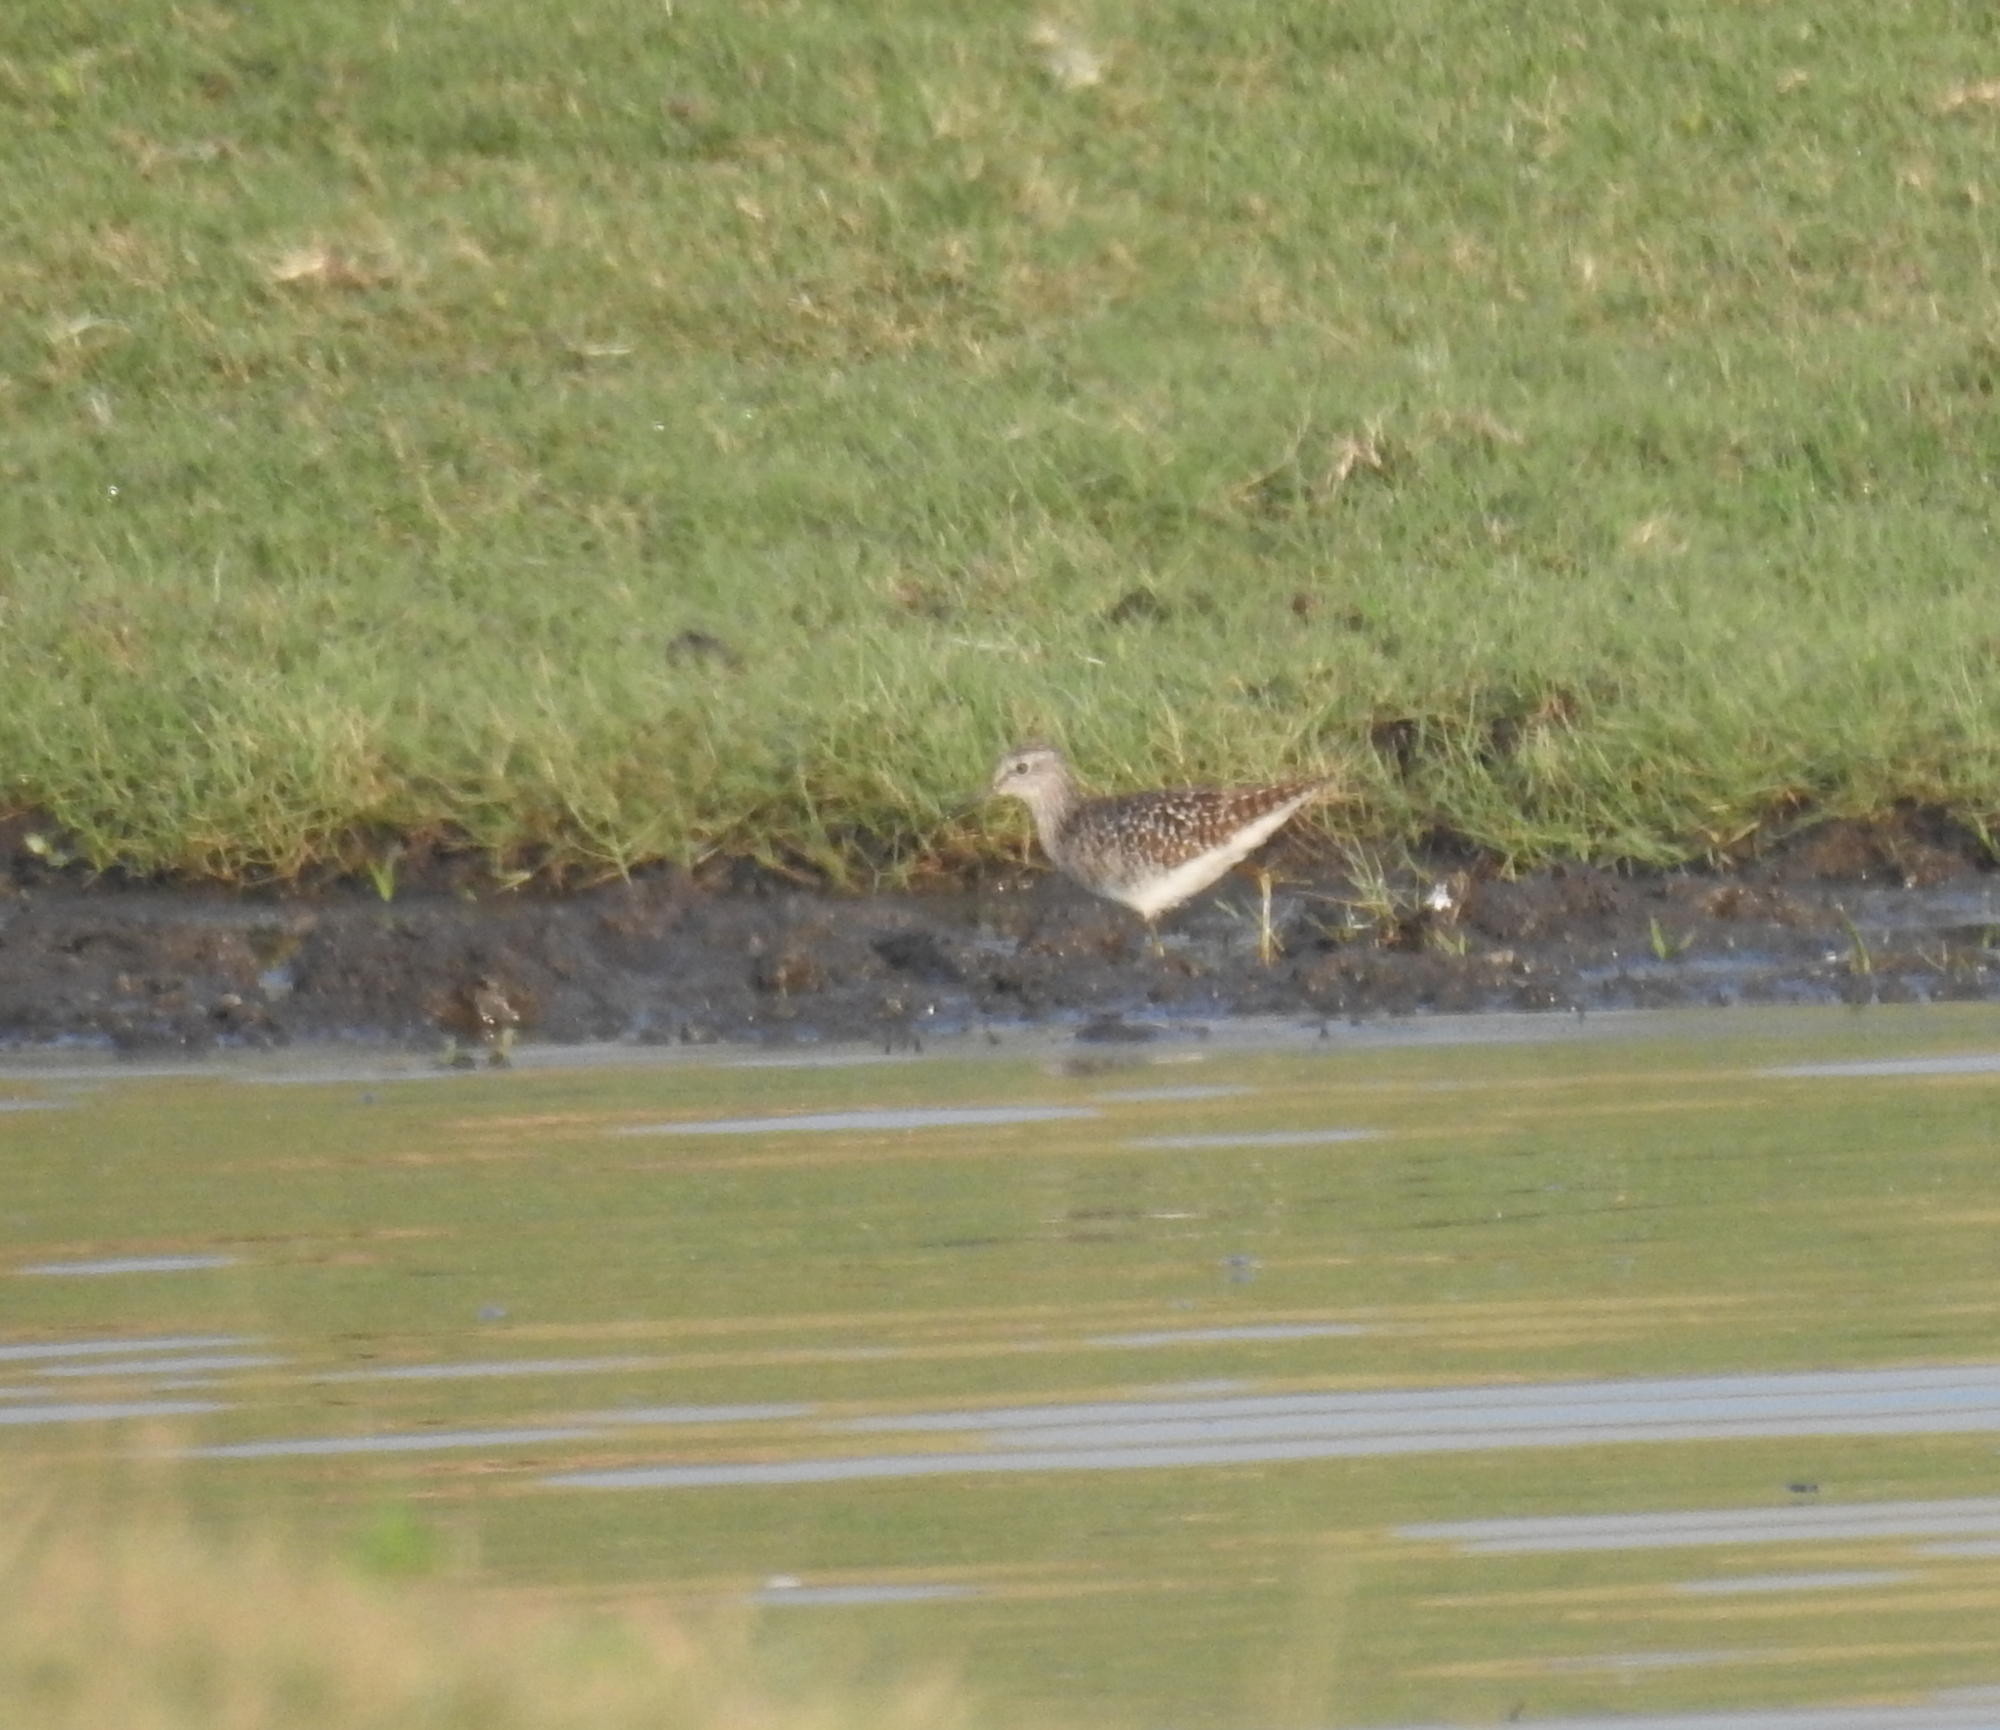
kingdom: Animalia
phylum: Chordata
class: Aves
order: Charadriiformes
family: Scolopacidae
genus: Tringa
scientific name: Tringa glareola
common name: Wood sandpiper
